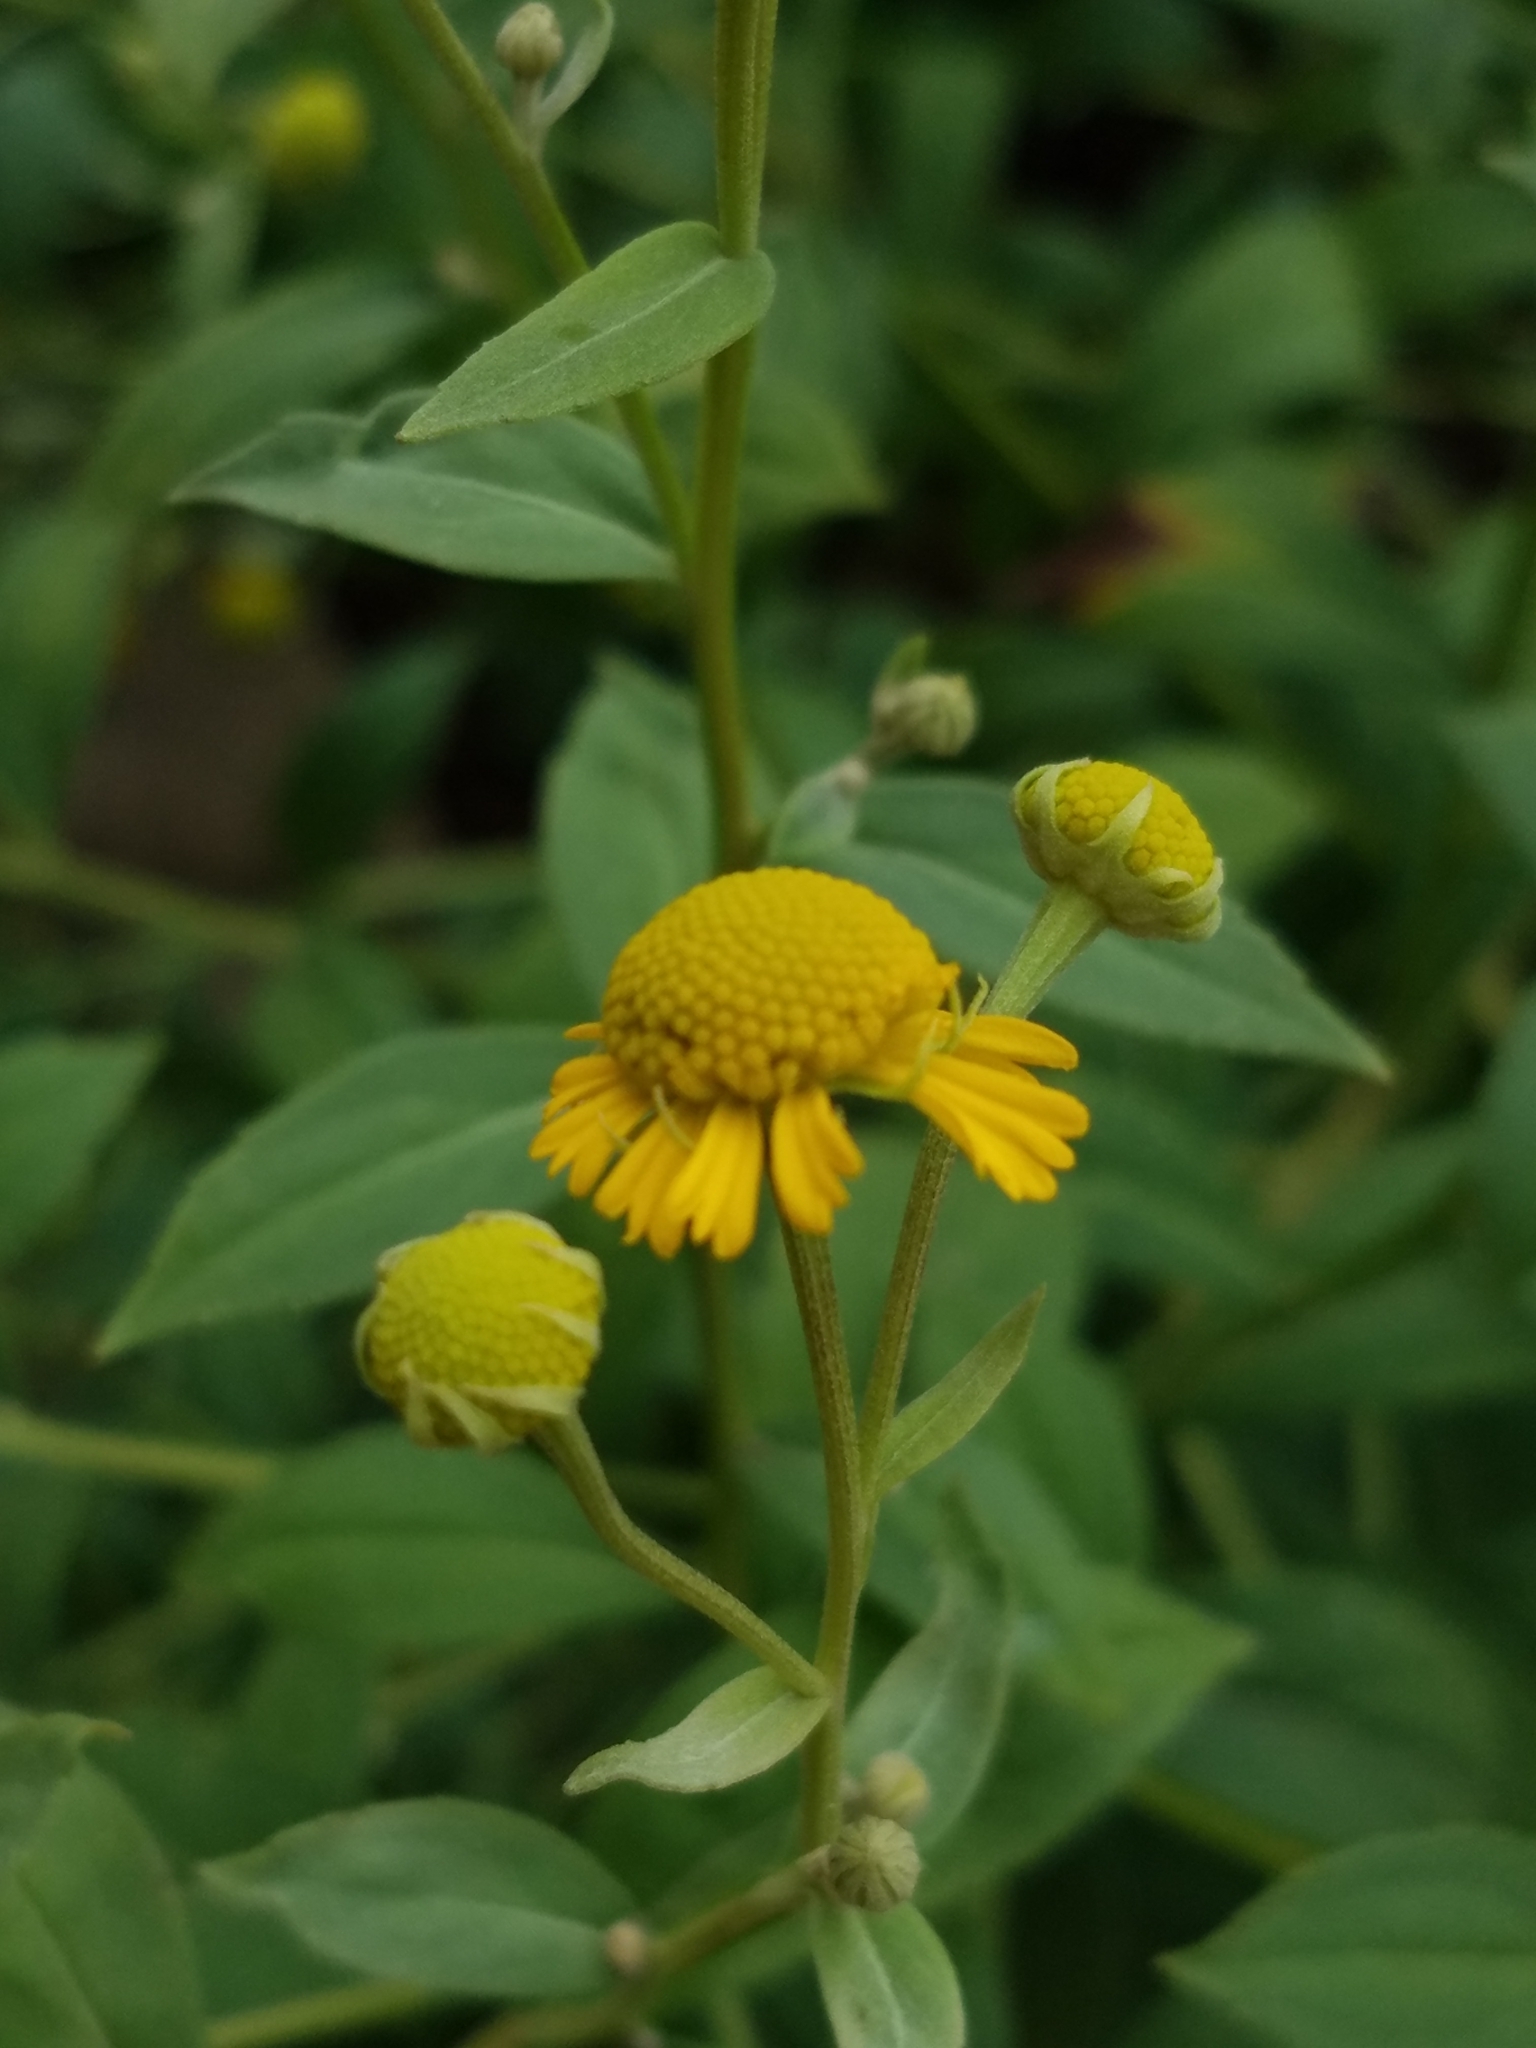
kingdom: Plantae
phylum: Tracheophyta
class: Magnoliopsida
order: Asterales
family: Asteraceae
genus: Helenium
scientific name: Helenium autumnale
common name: Sneezeweed
